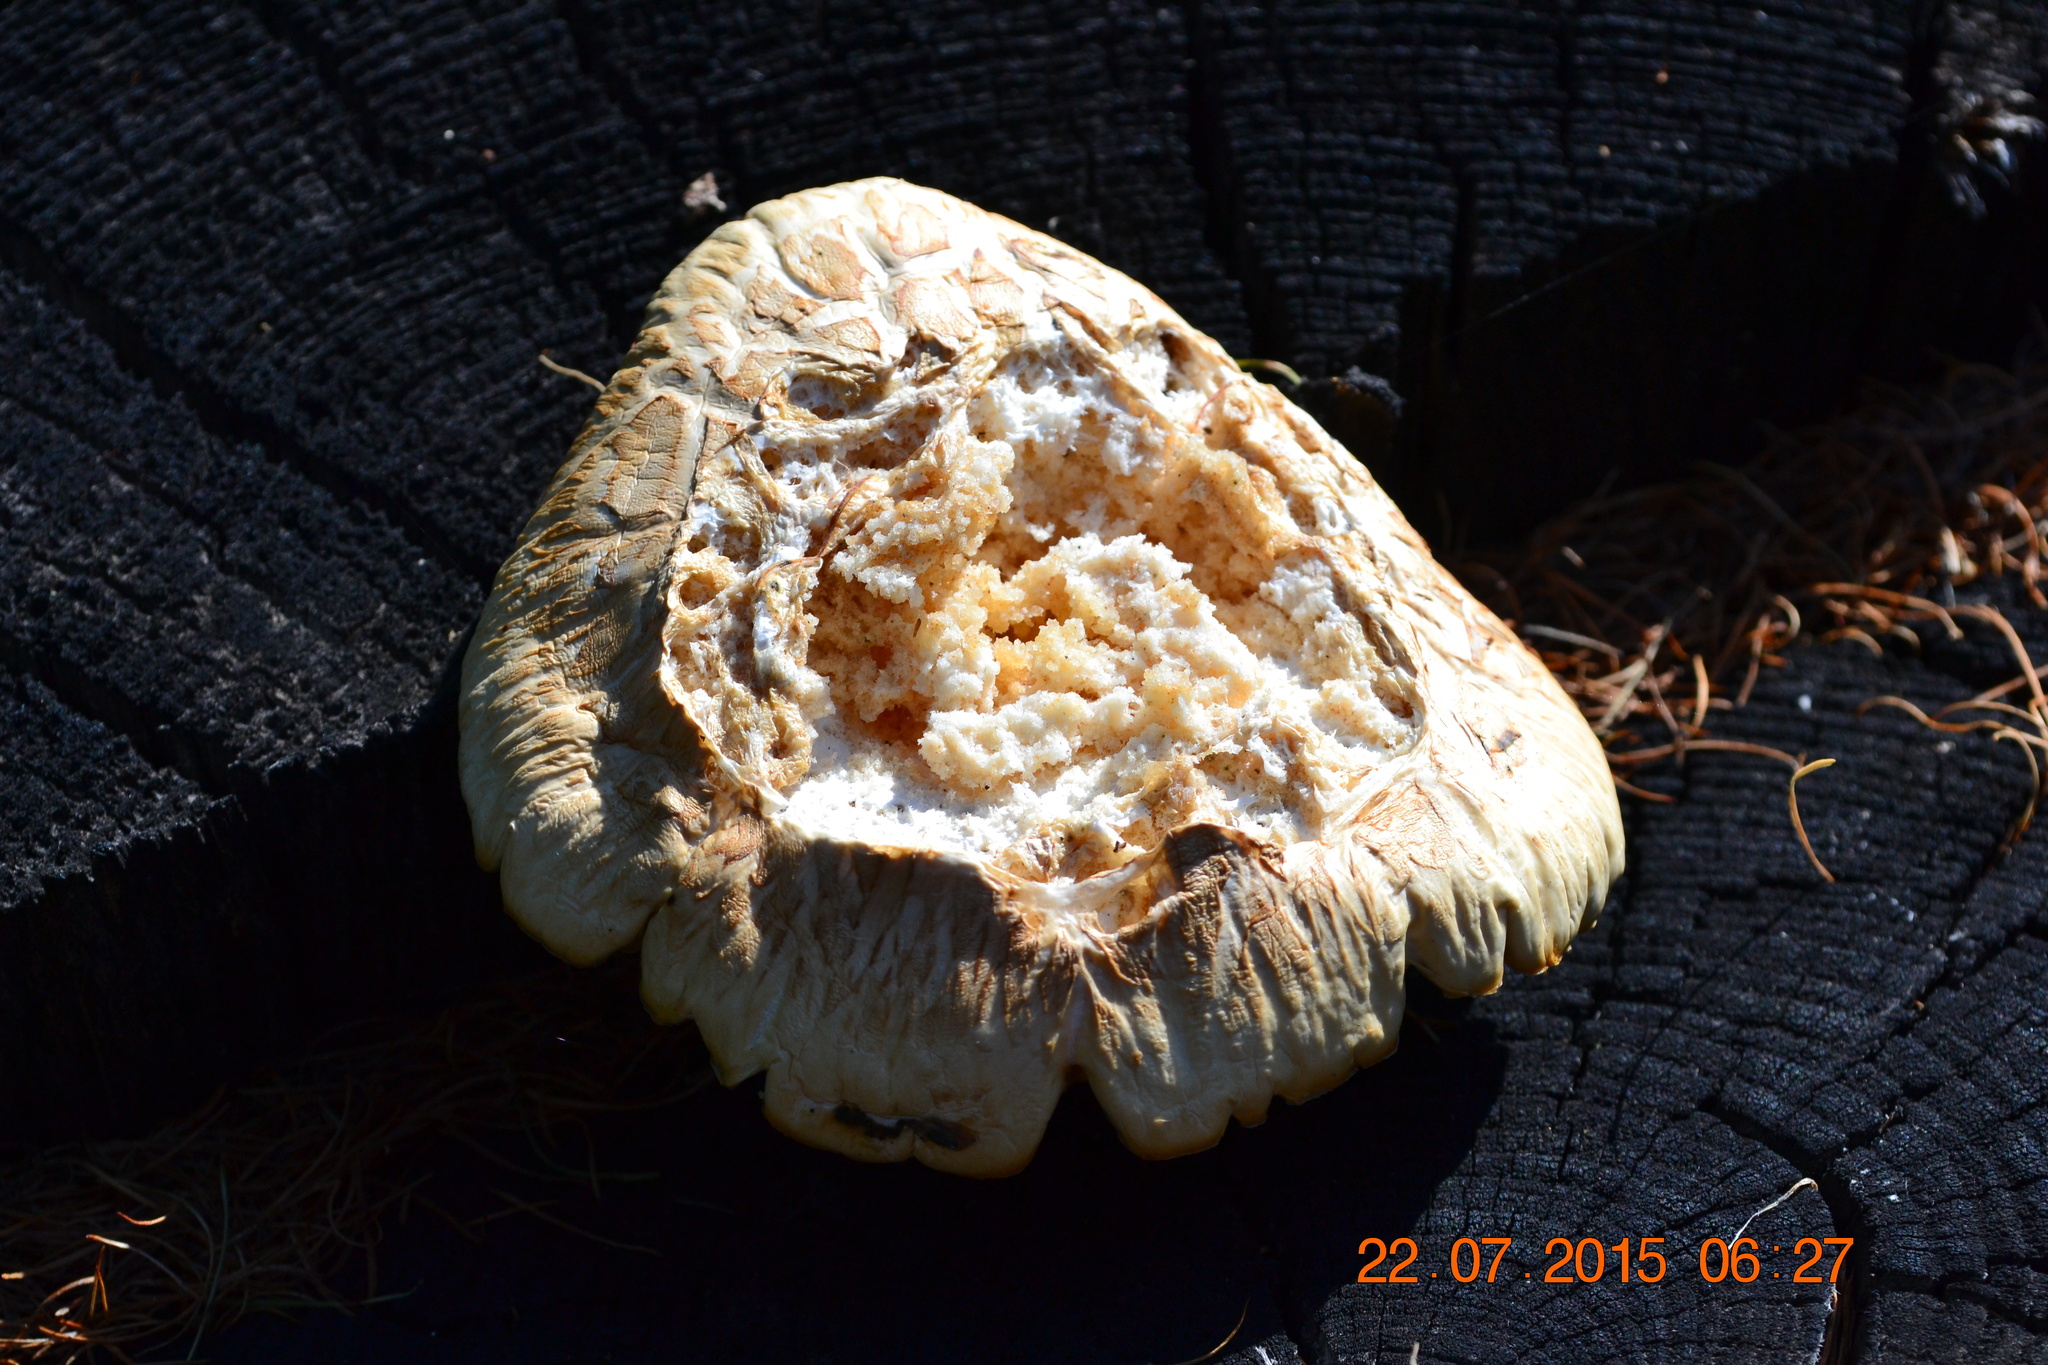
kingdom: Fungi
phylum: Basidiomycota
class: Agaricomycetes
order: Gloeophyllales
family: Gloeophyllaceae
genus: Neolentinus
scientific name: Neolentinus lepideus
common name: Scaly sawgill
